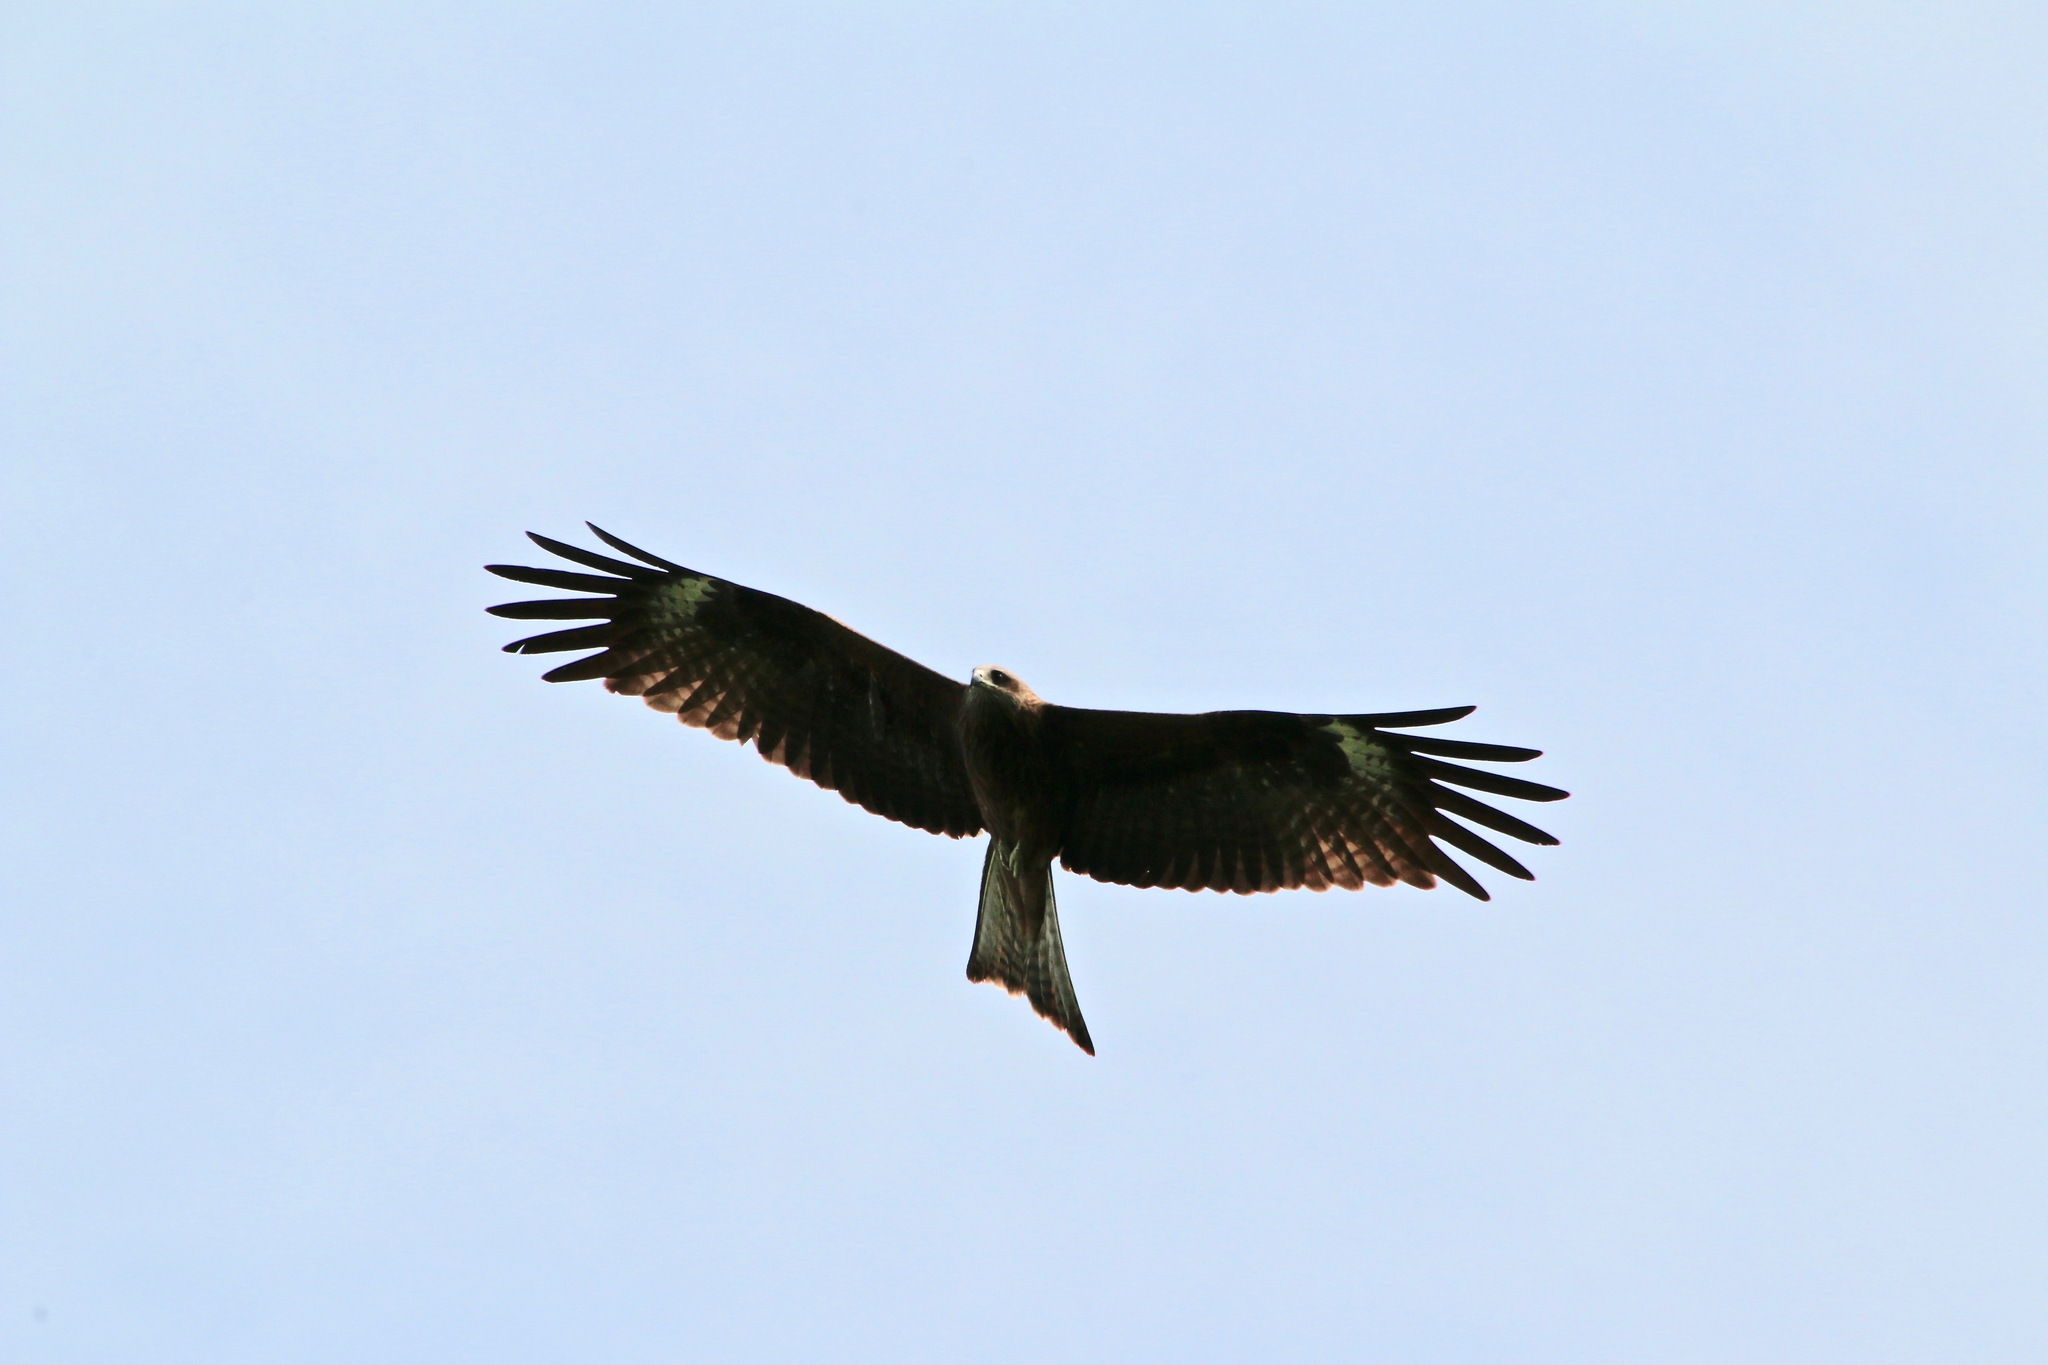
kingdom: Animalia
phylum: Chordata
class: Aves
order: Accipitriformes
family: Accipitridae
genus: Milvus
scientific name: Milvus migrans
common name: Black kite
